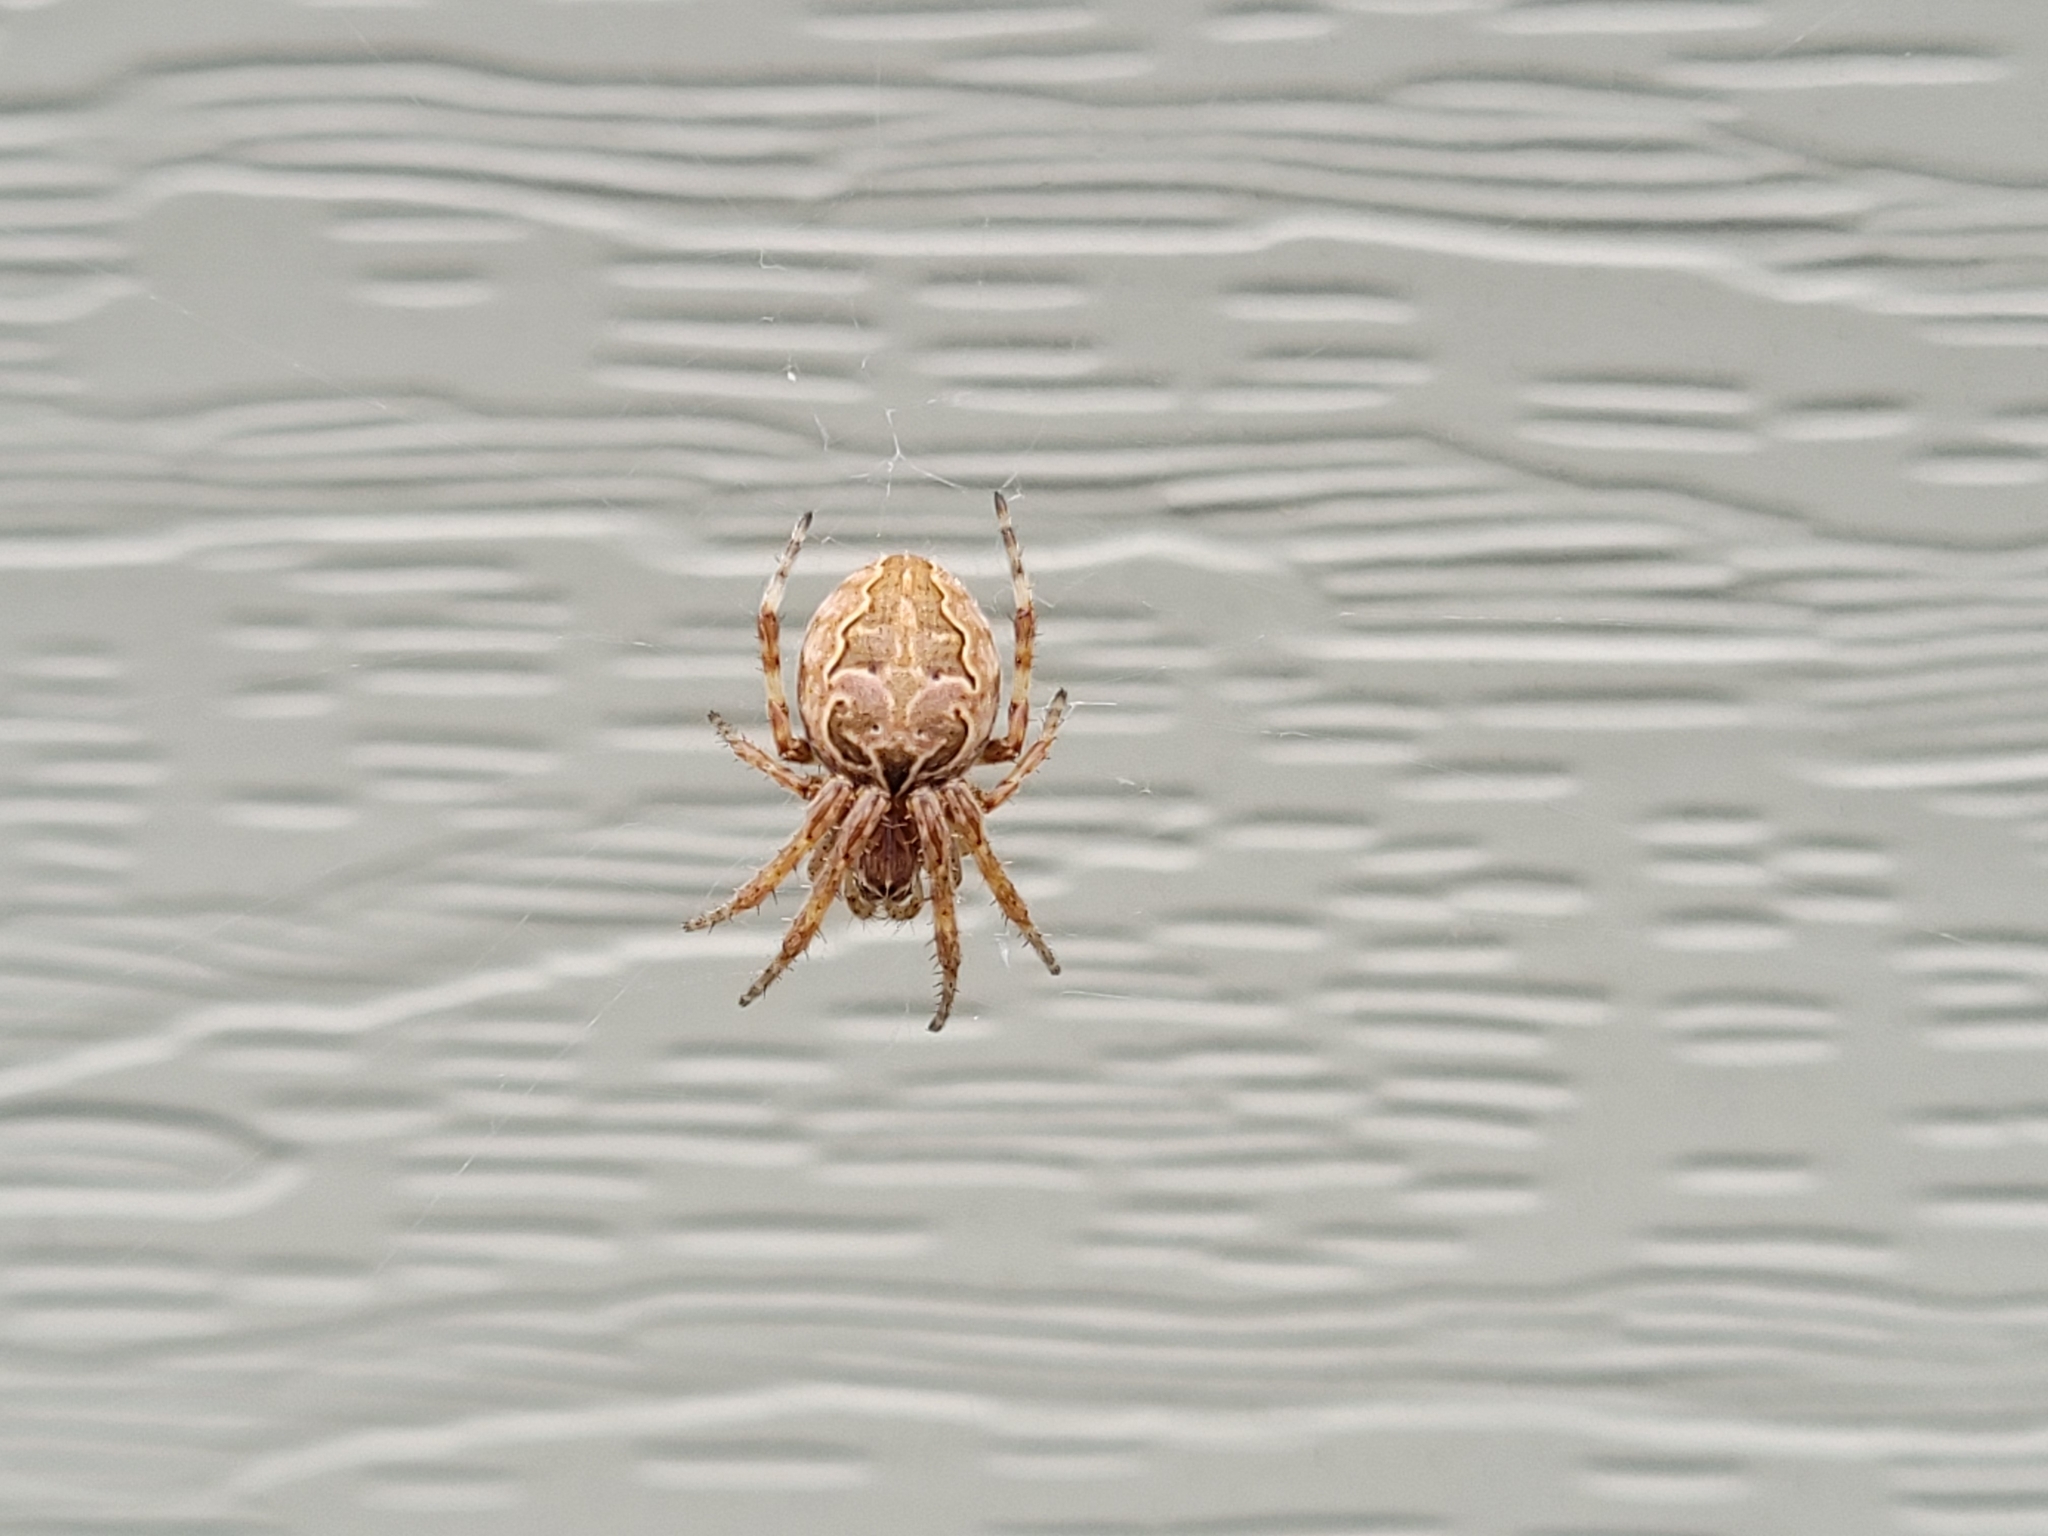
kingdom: Animalia
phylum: Arthropoda
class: Arachnida
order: Araneae
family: Araneidae
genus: Larinioides
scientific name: Larinioides sclopetarius
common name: Bridge orbweaver
